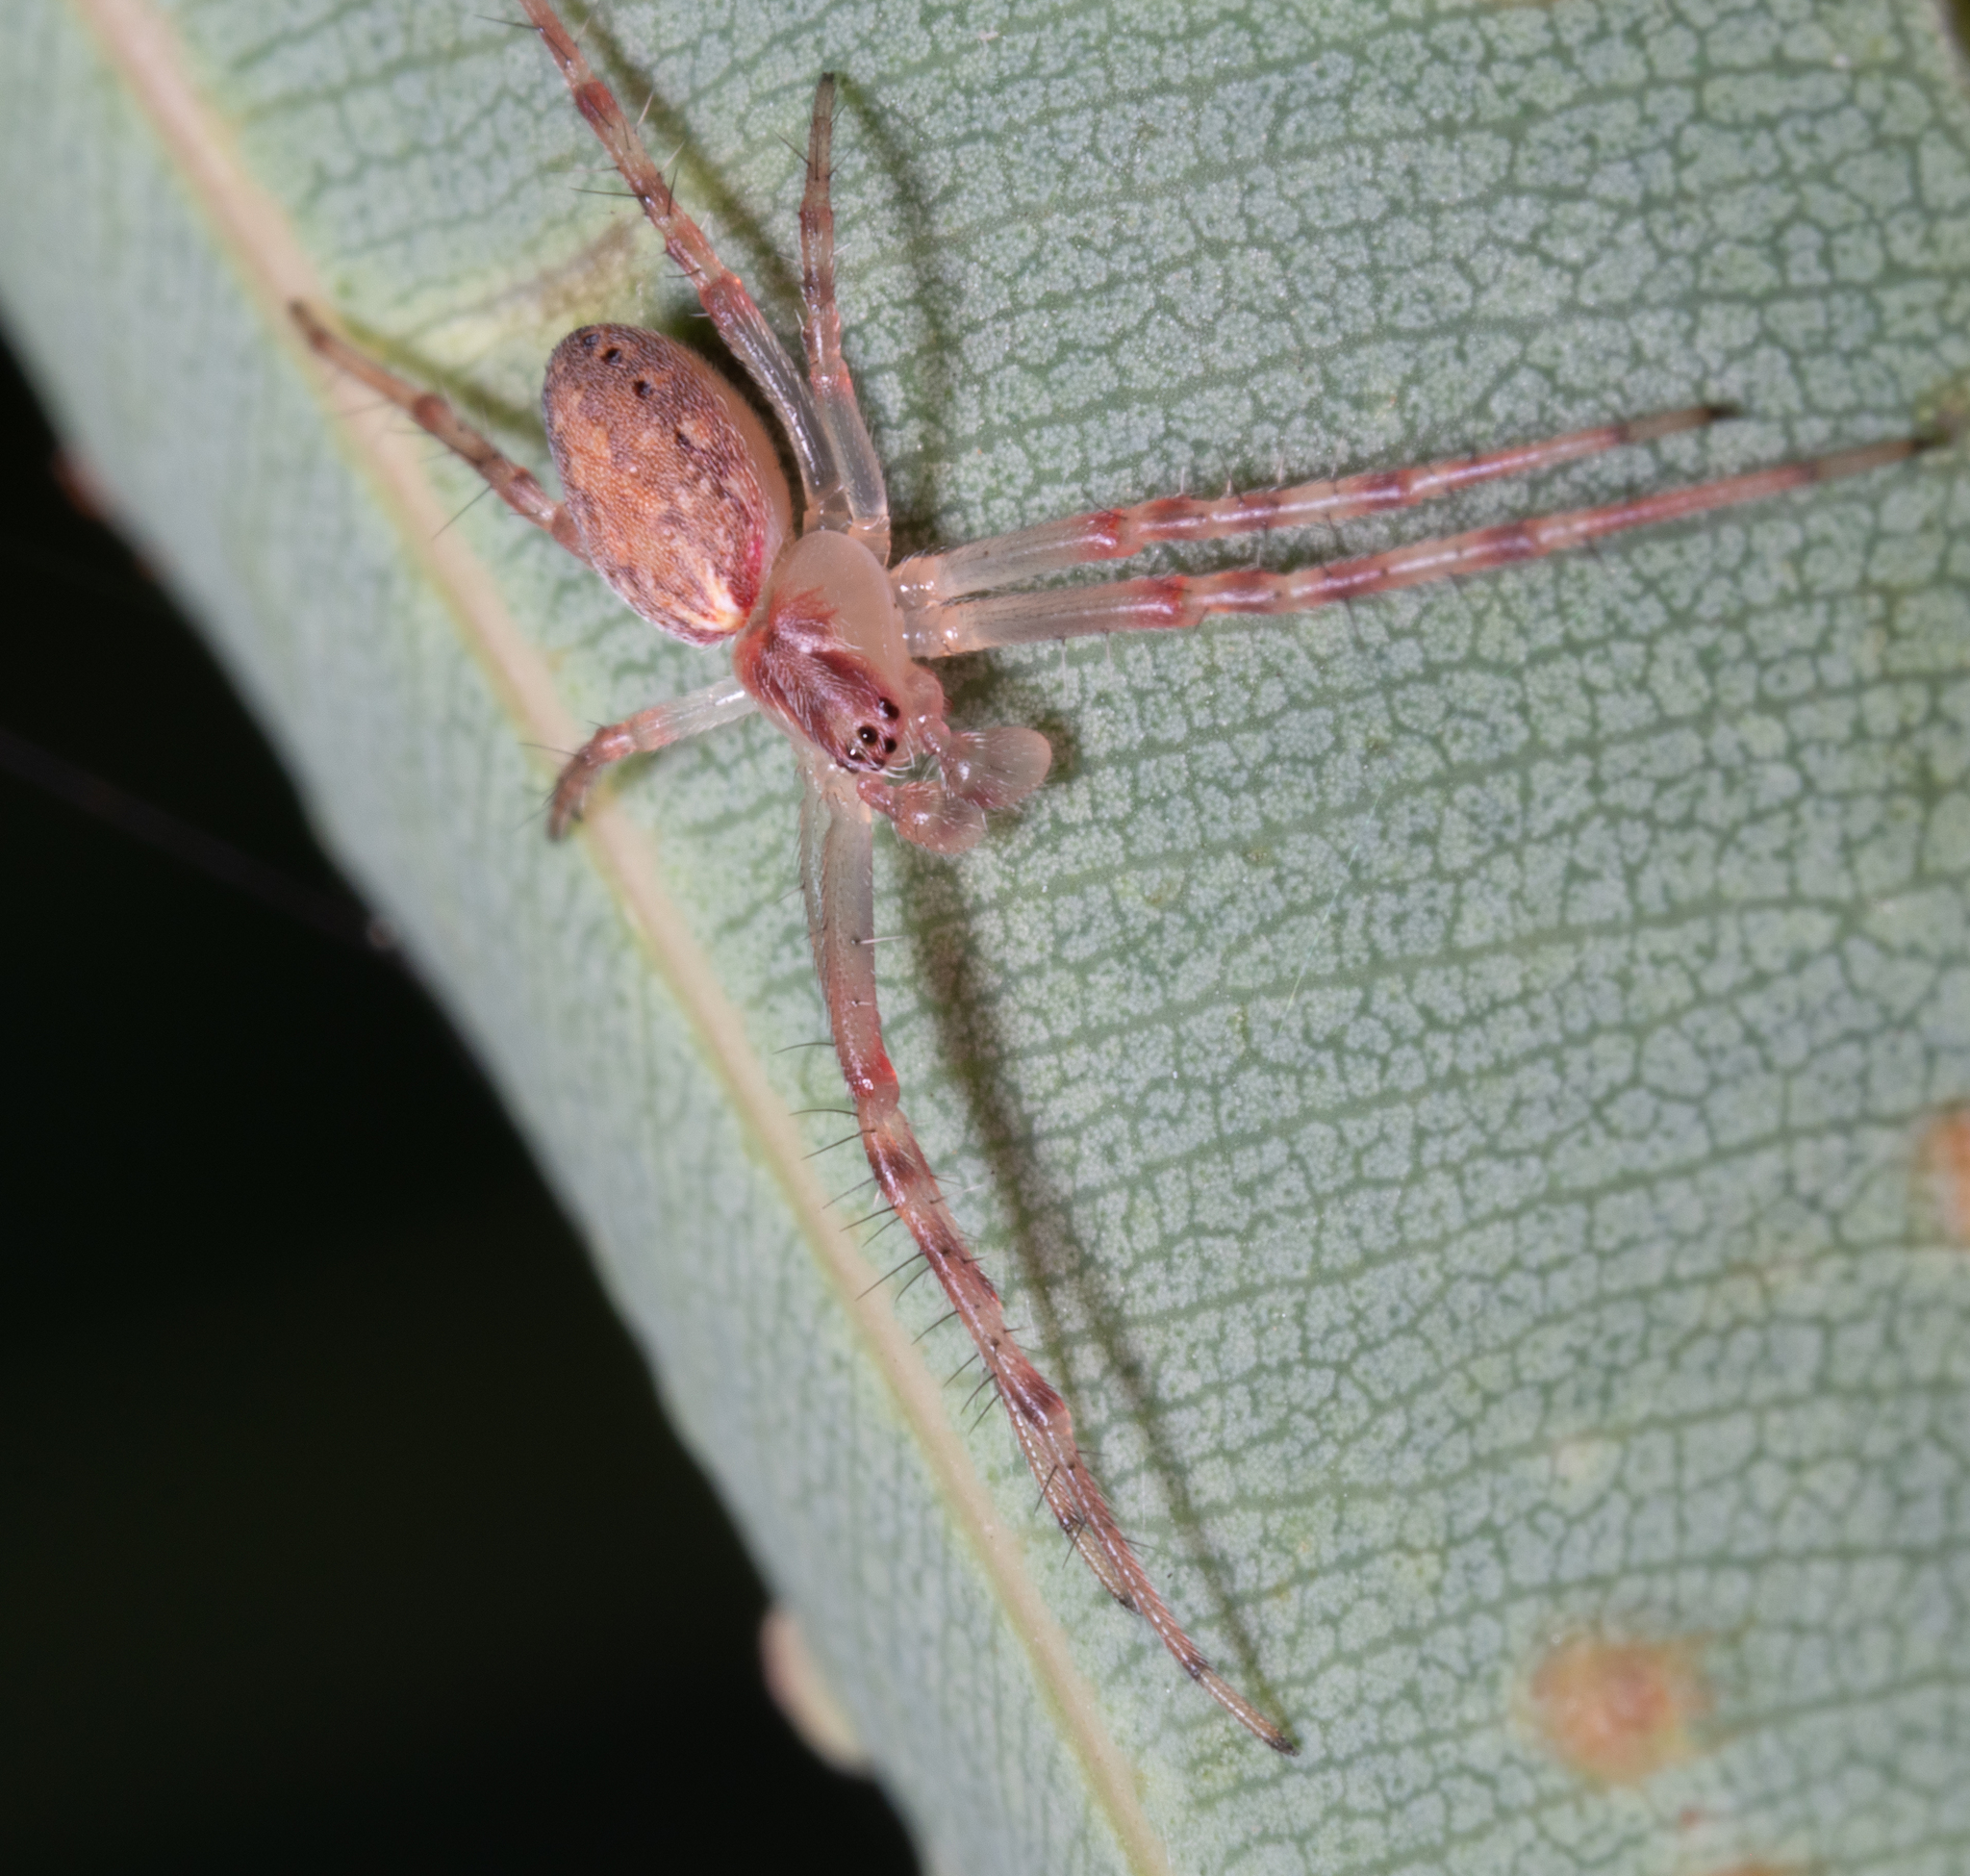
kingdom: Animalia
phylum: Arthropoda
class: Arachnida
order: Araneae
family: Araneidae
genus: Araneus
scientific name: Araneus talipedatus
